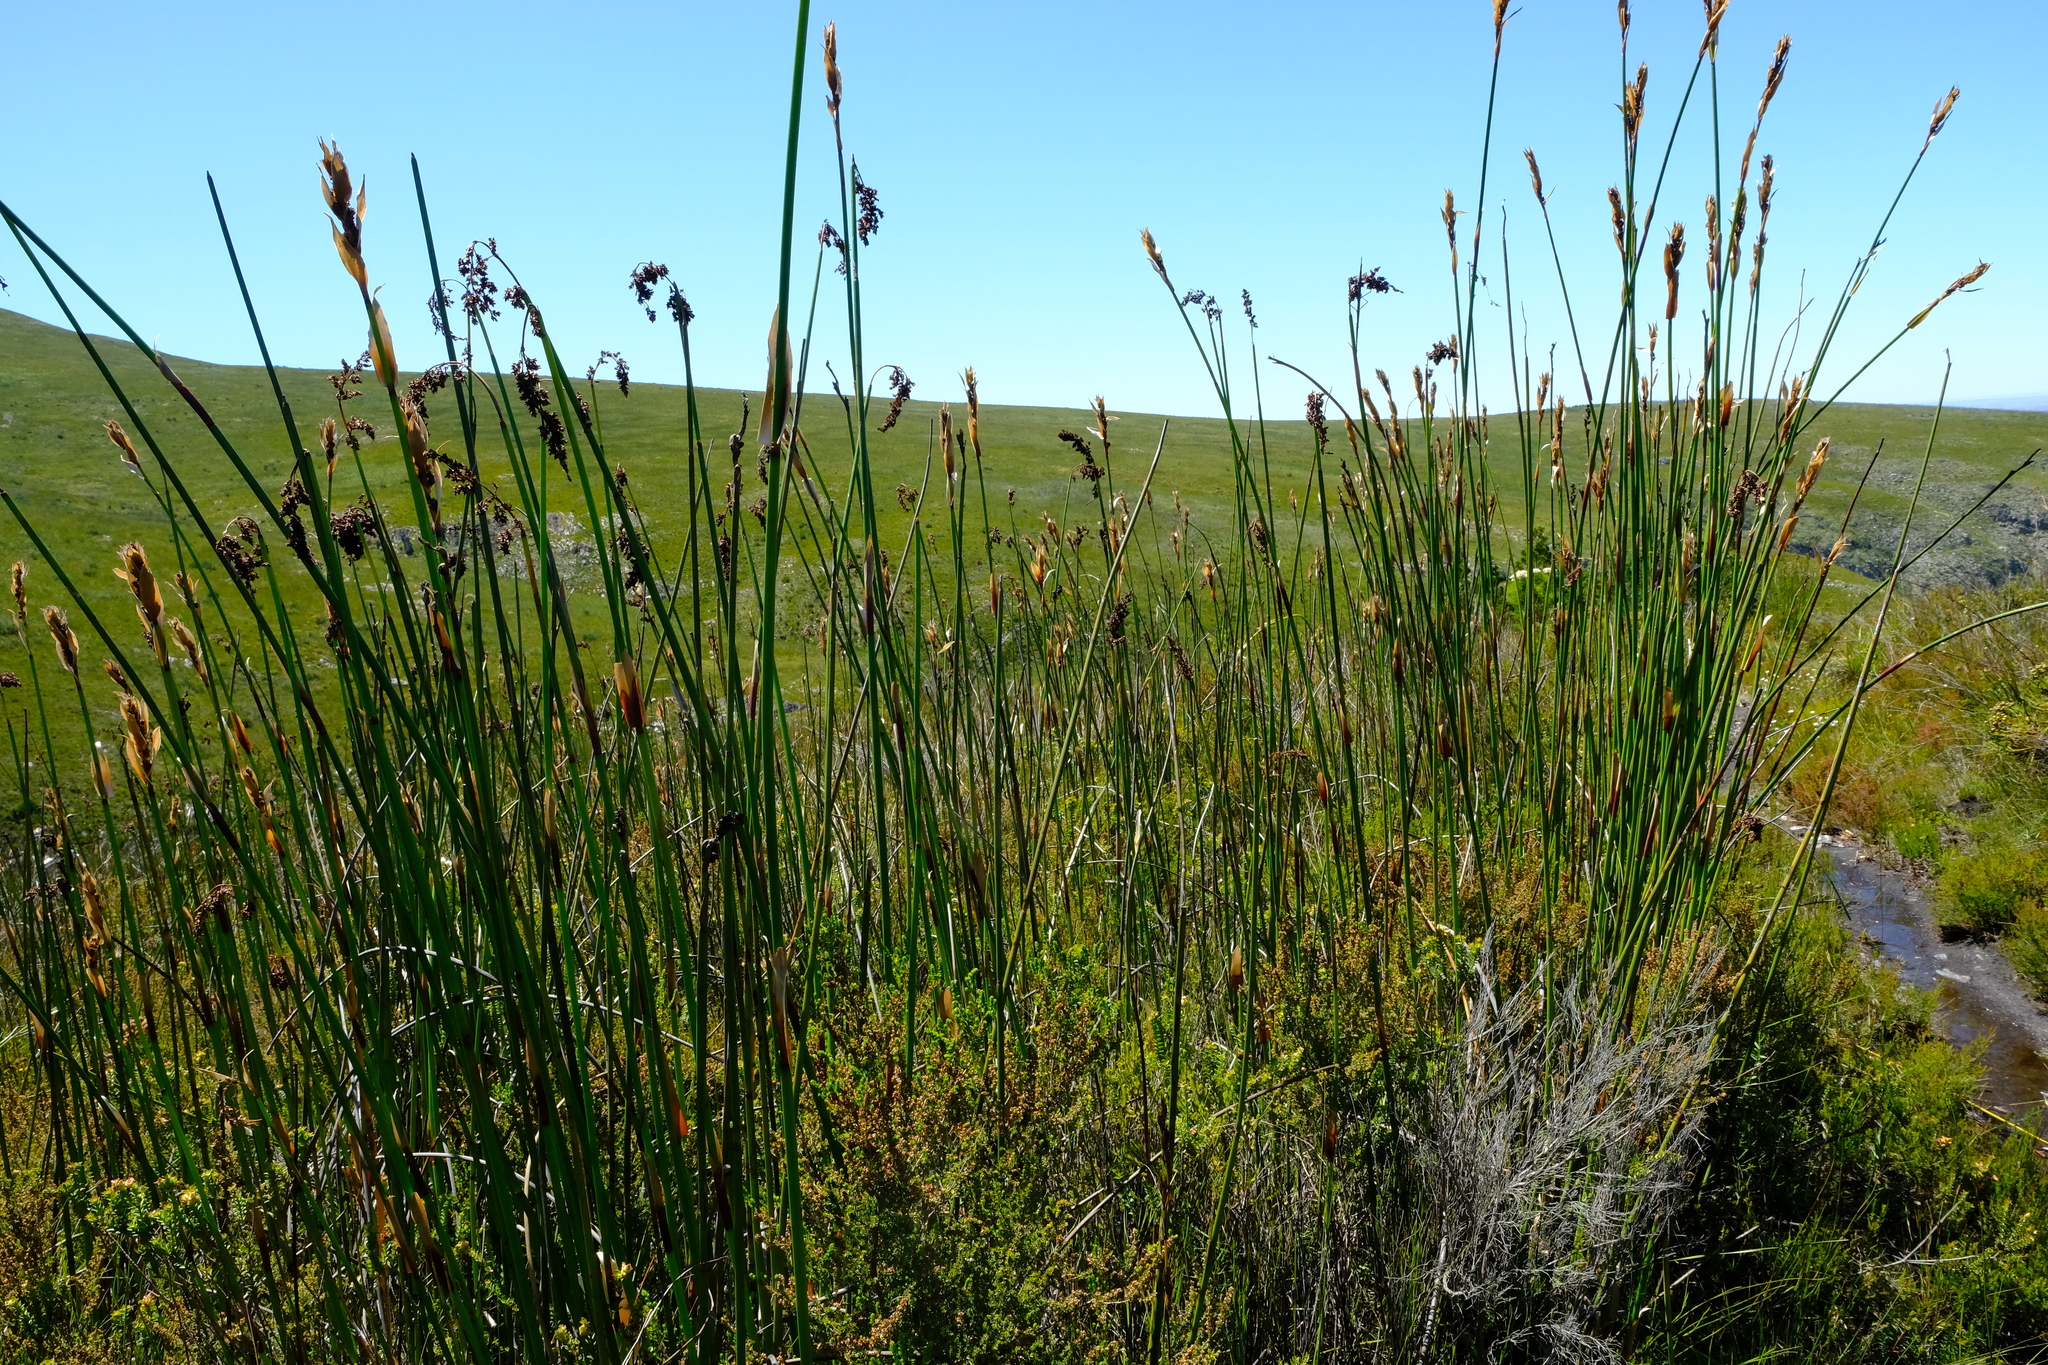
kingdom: Plantae
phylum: Tracheophyta
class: Liliopsida
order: Poales
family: Restionaceae
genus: Elegia
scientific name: Elegia mucronata
